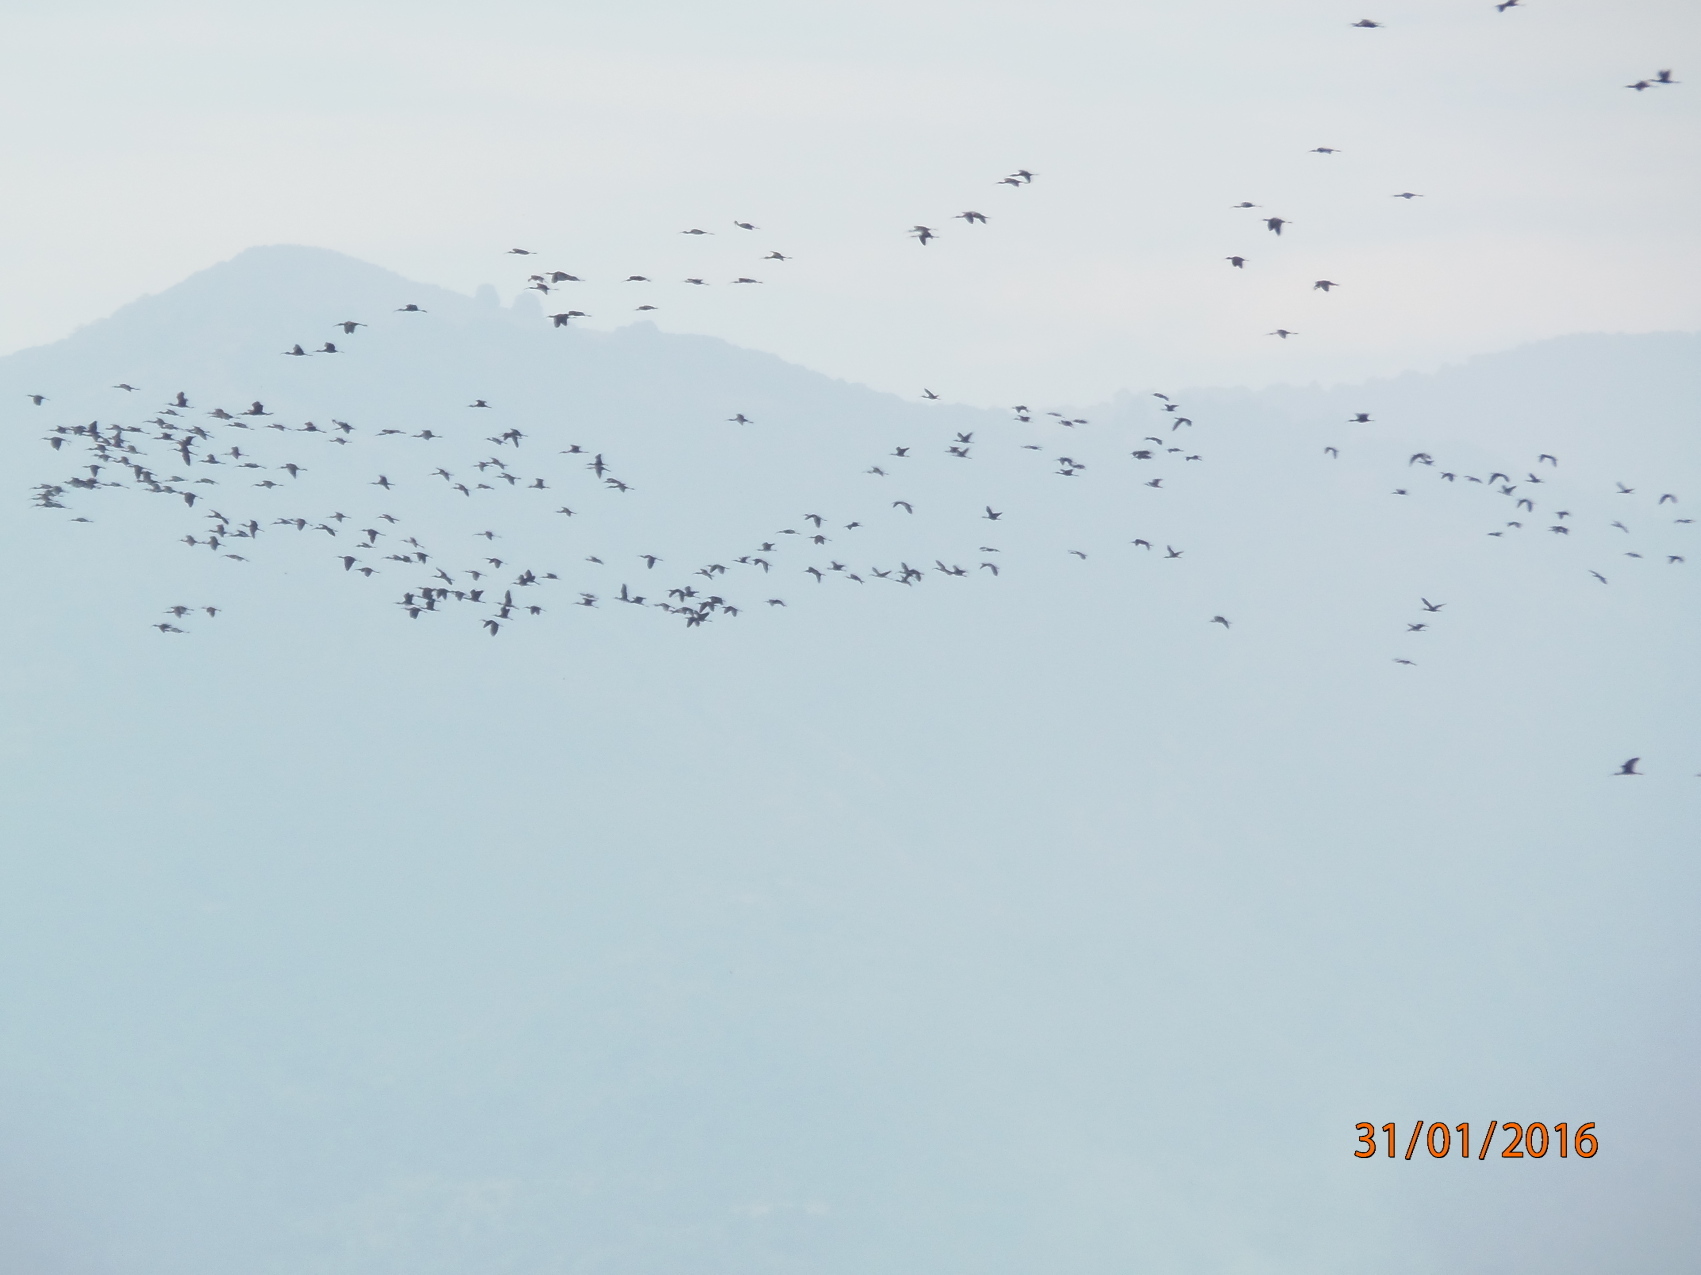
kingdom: Animalia
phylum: Chordata
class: Aves
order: Pelecaniformes
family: Threskiornithidae
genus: Plegadis
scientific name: Plegadis chihi
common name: White-faced ibis
